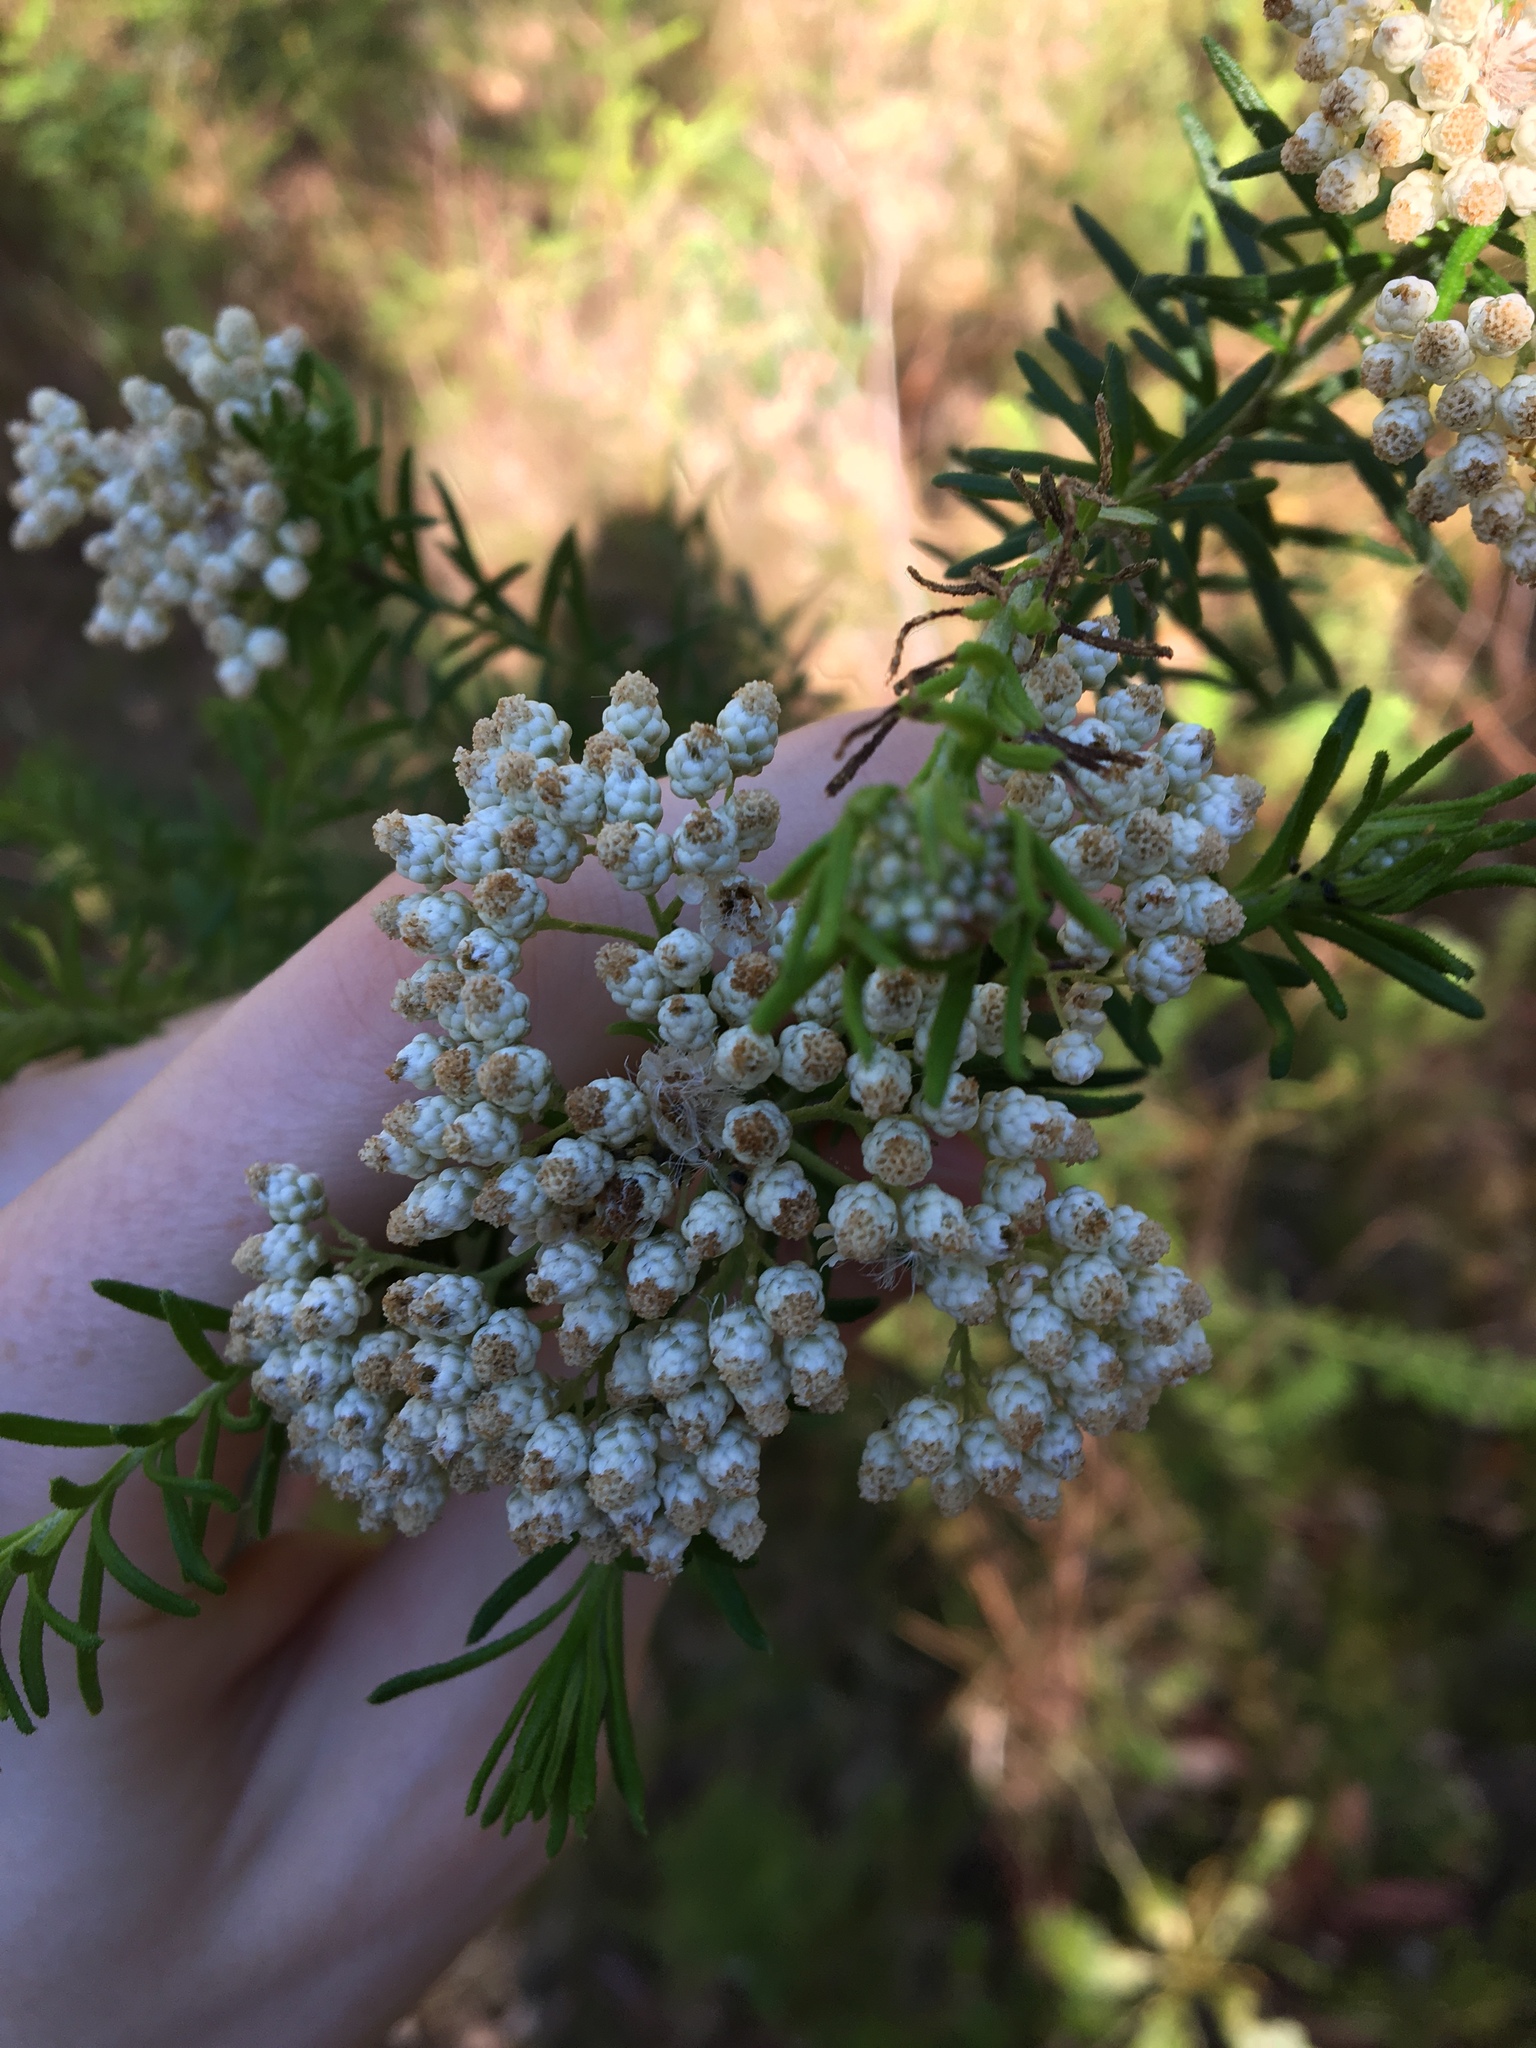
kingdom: Plantae
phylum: Tracheophyta
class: Magnoliopsida
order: Asterales
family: Asteraceae
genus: Ozothamnus
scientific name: Ozothamnus diosmifolius
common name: White-dogwood
